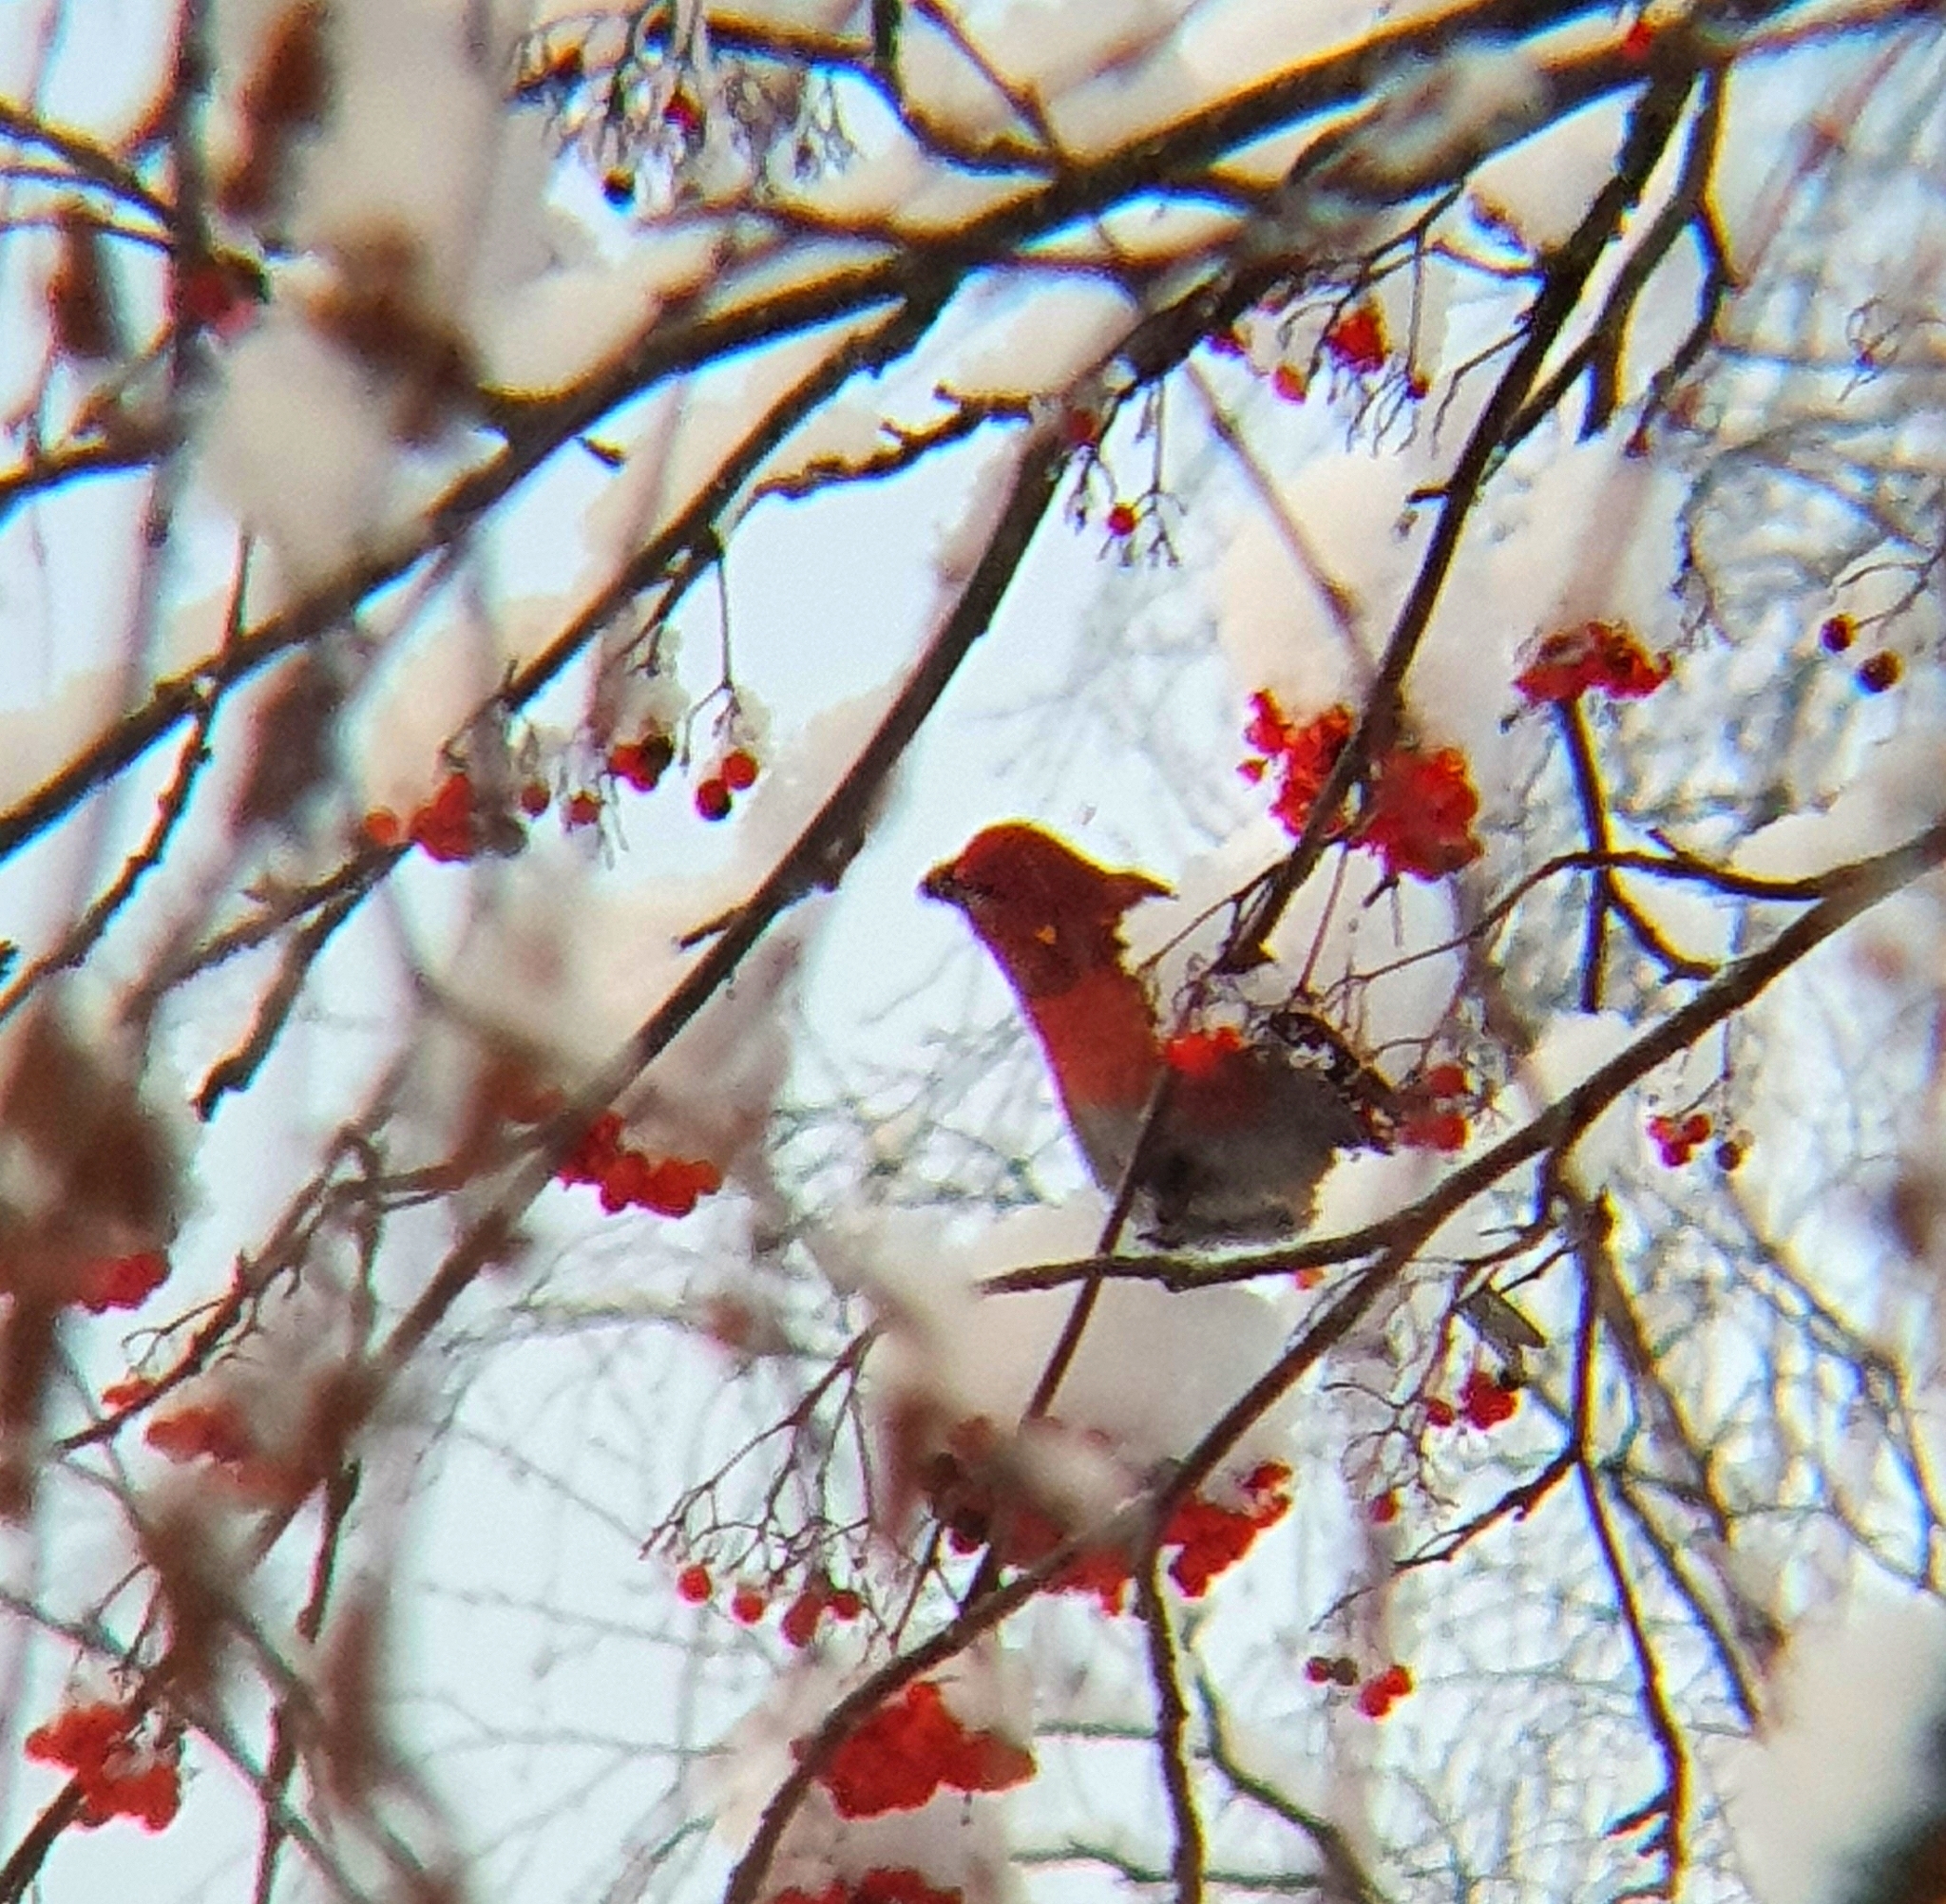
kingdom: Animalia
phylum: Chordata
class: Aves
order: Passeriformes
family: Fringillidae
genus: Pinicola
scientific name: Pinicola enucleator
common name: Pine grosbeak
